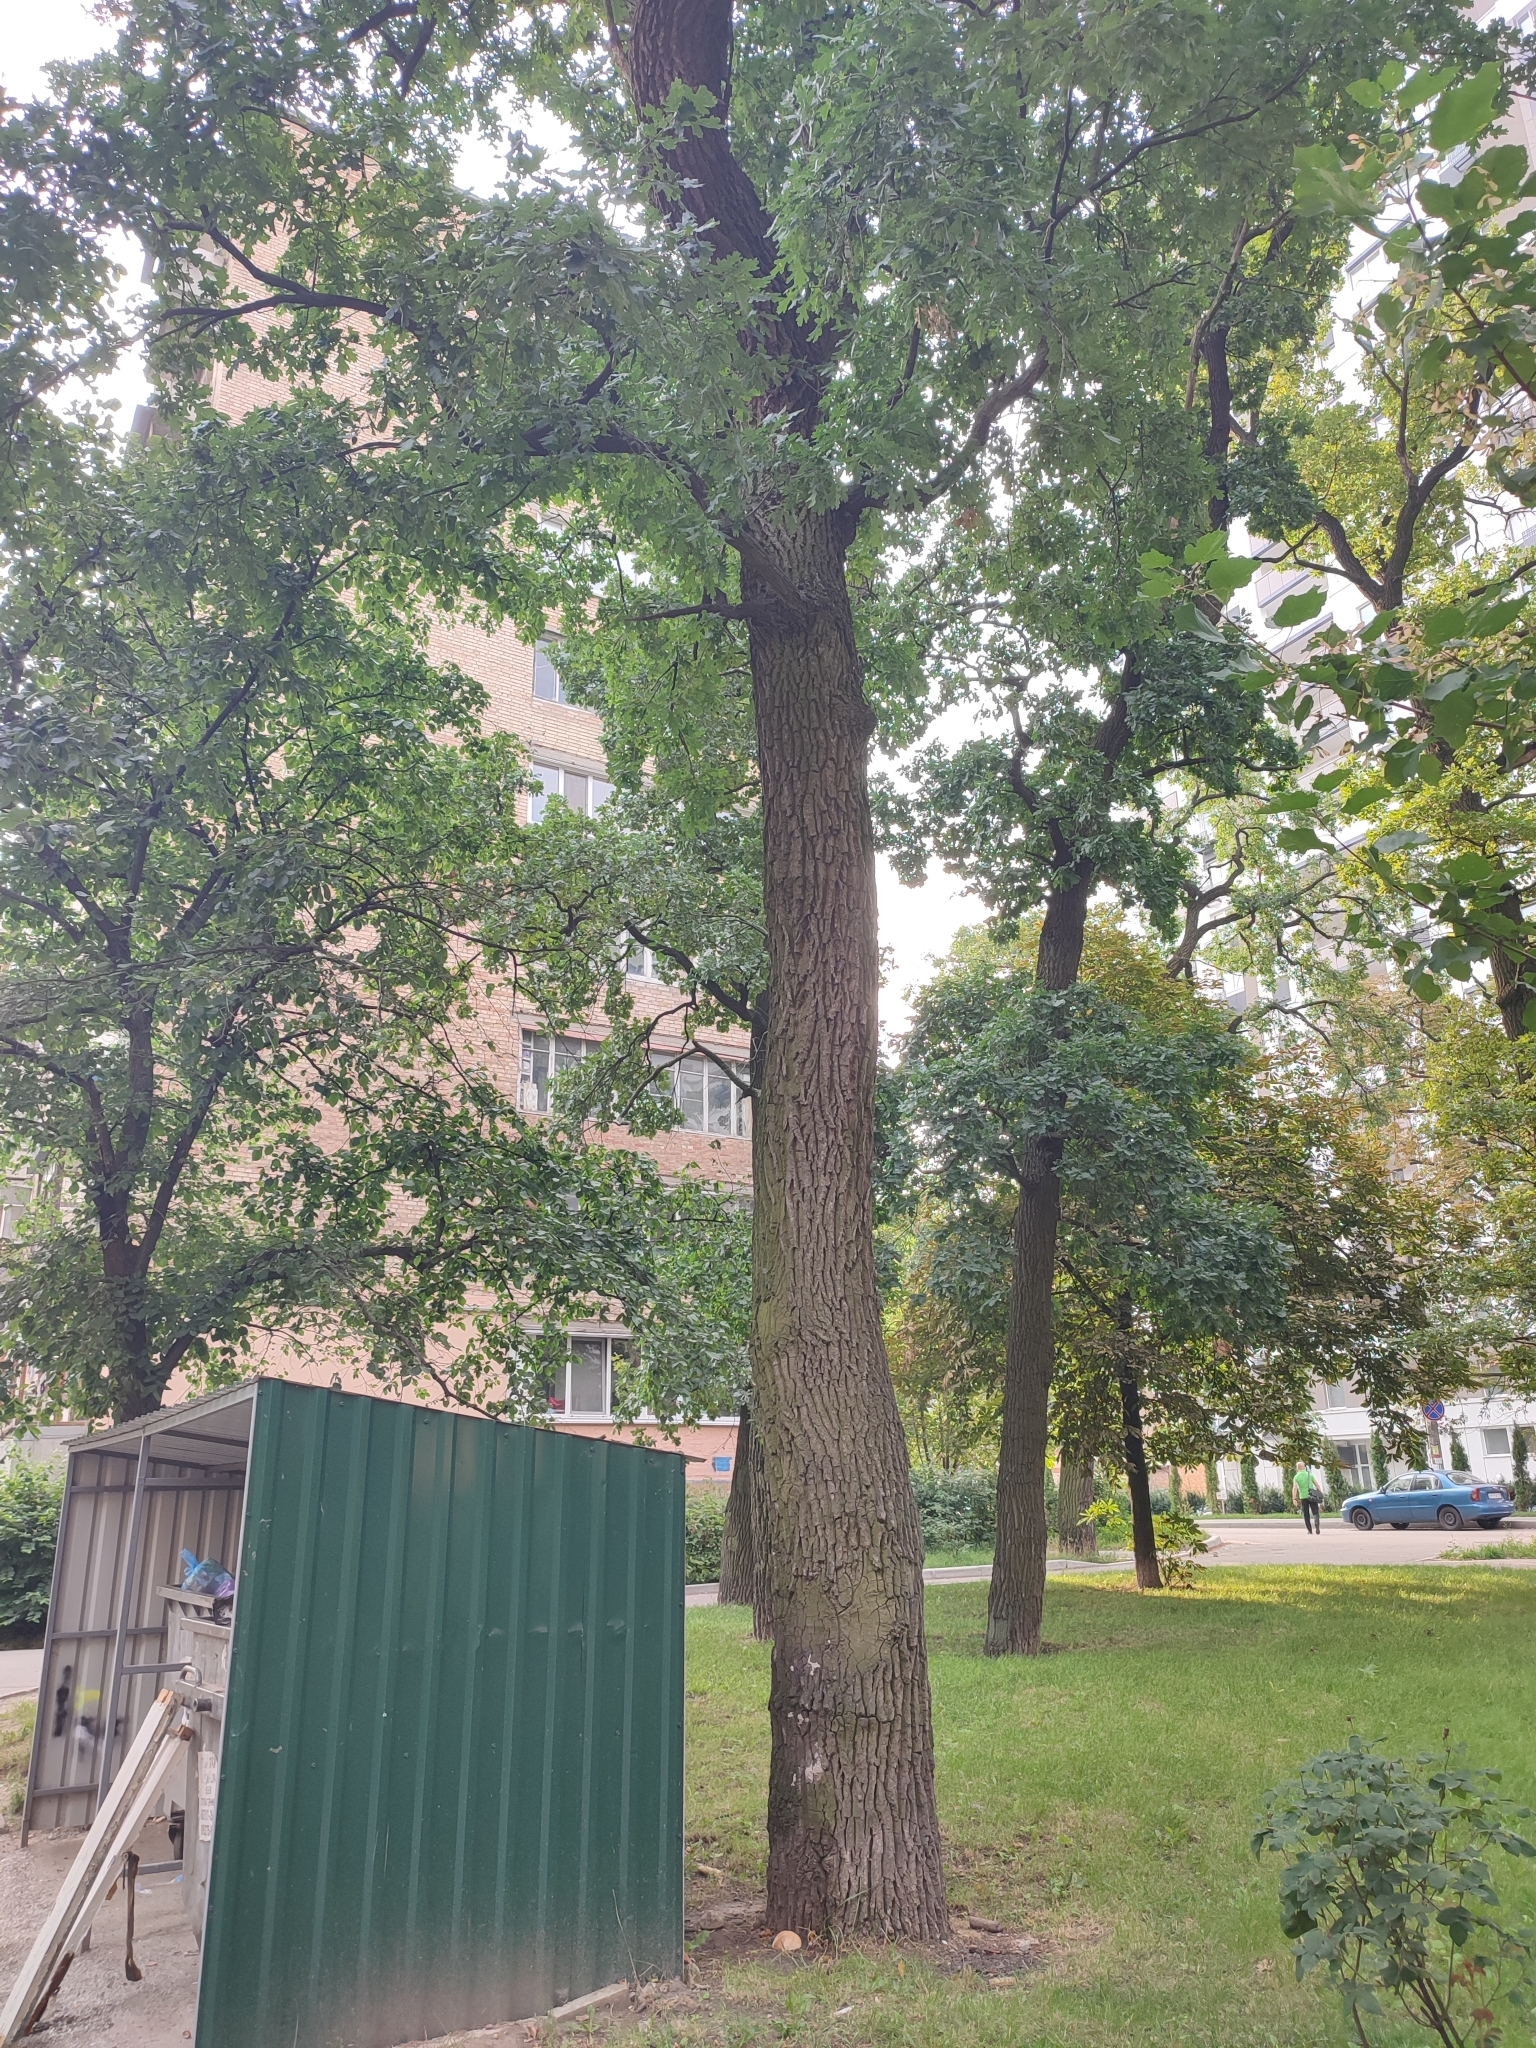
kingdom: Plantae
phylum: Tracheophyta
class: Magnoliopsida
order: Fagales
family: Fagaceae
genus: Quercus
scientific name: Quercus robur
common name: Pedunculate oak
